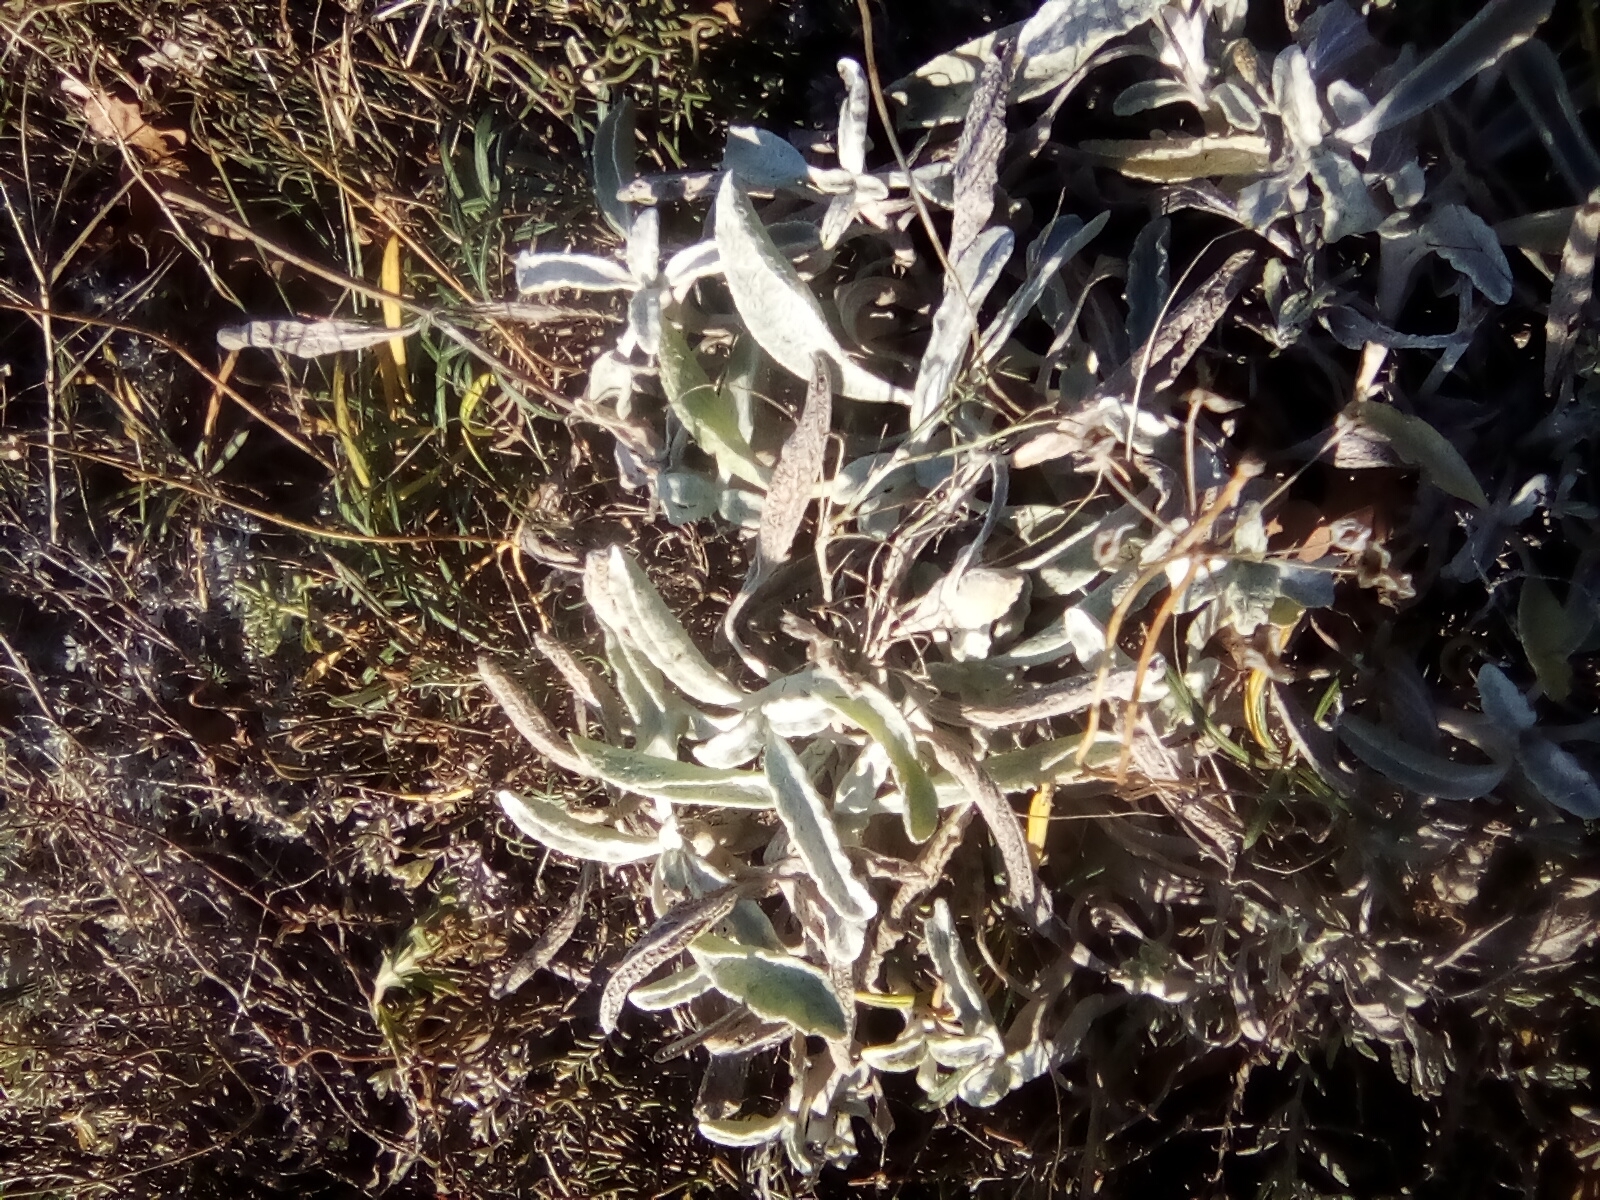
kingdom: Plantae
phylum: Tracheophyta
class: Magnoliopsida
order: Lamiales
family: Lamiaceae
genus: Sideritis
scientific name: Sideritis euxina
